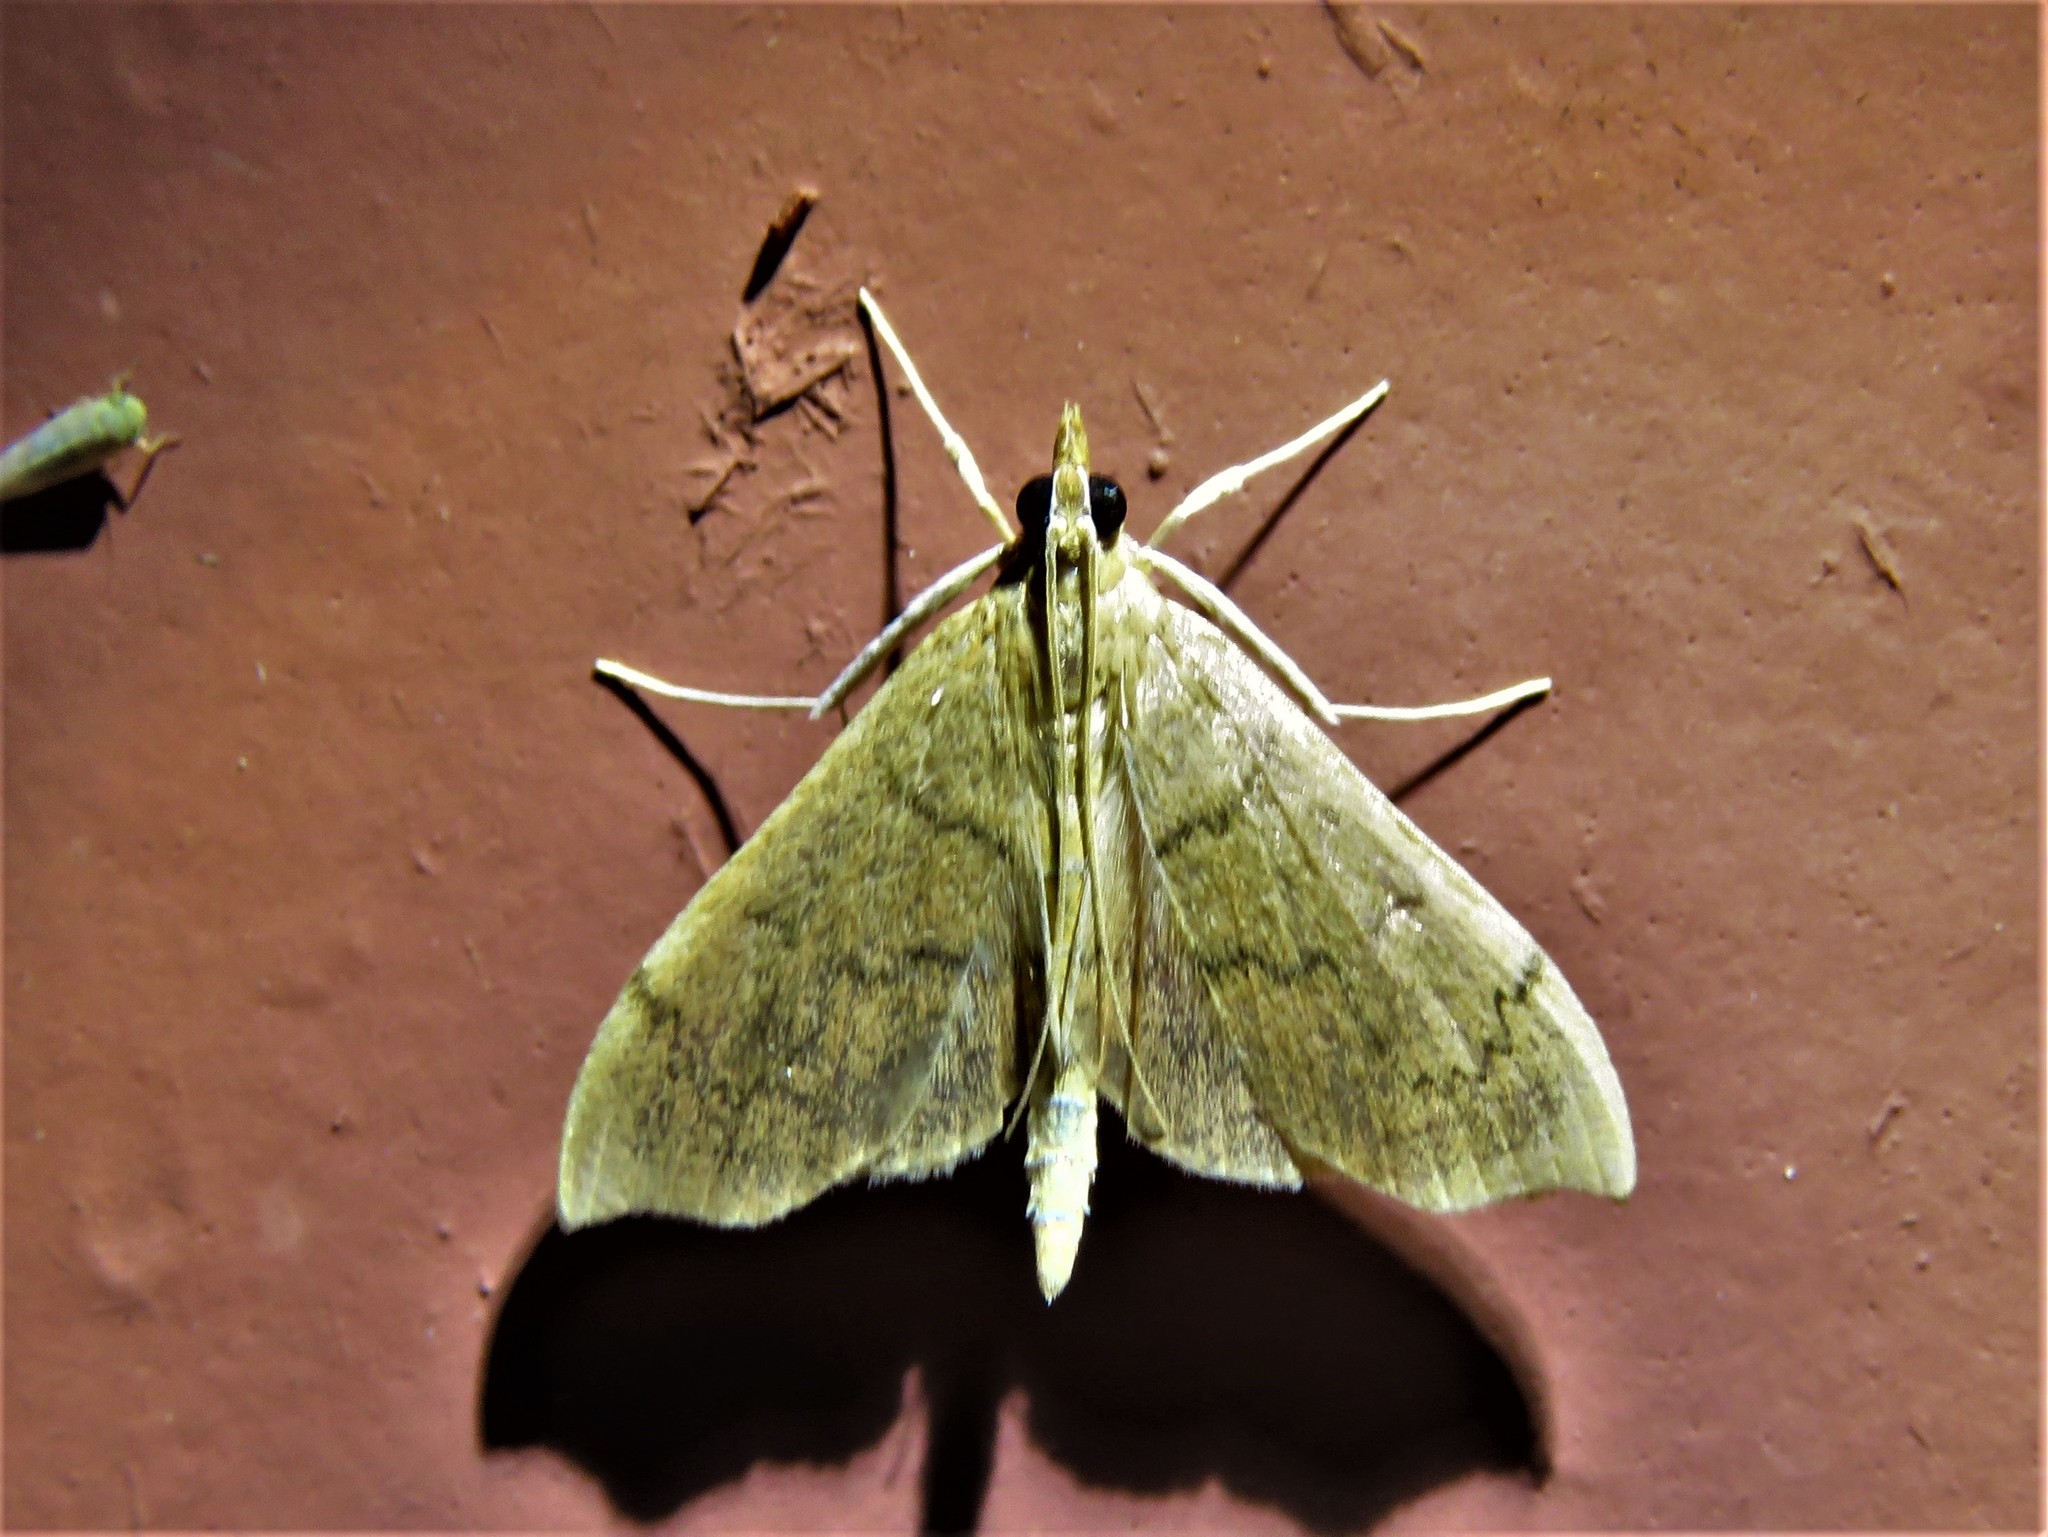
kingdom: Animalia
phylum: Arthropoda
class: Insecta
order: Lepidoptera
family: Crambidae
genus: Sericoplaga
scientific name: Sericoplaga externalis
